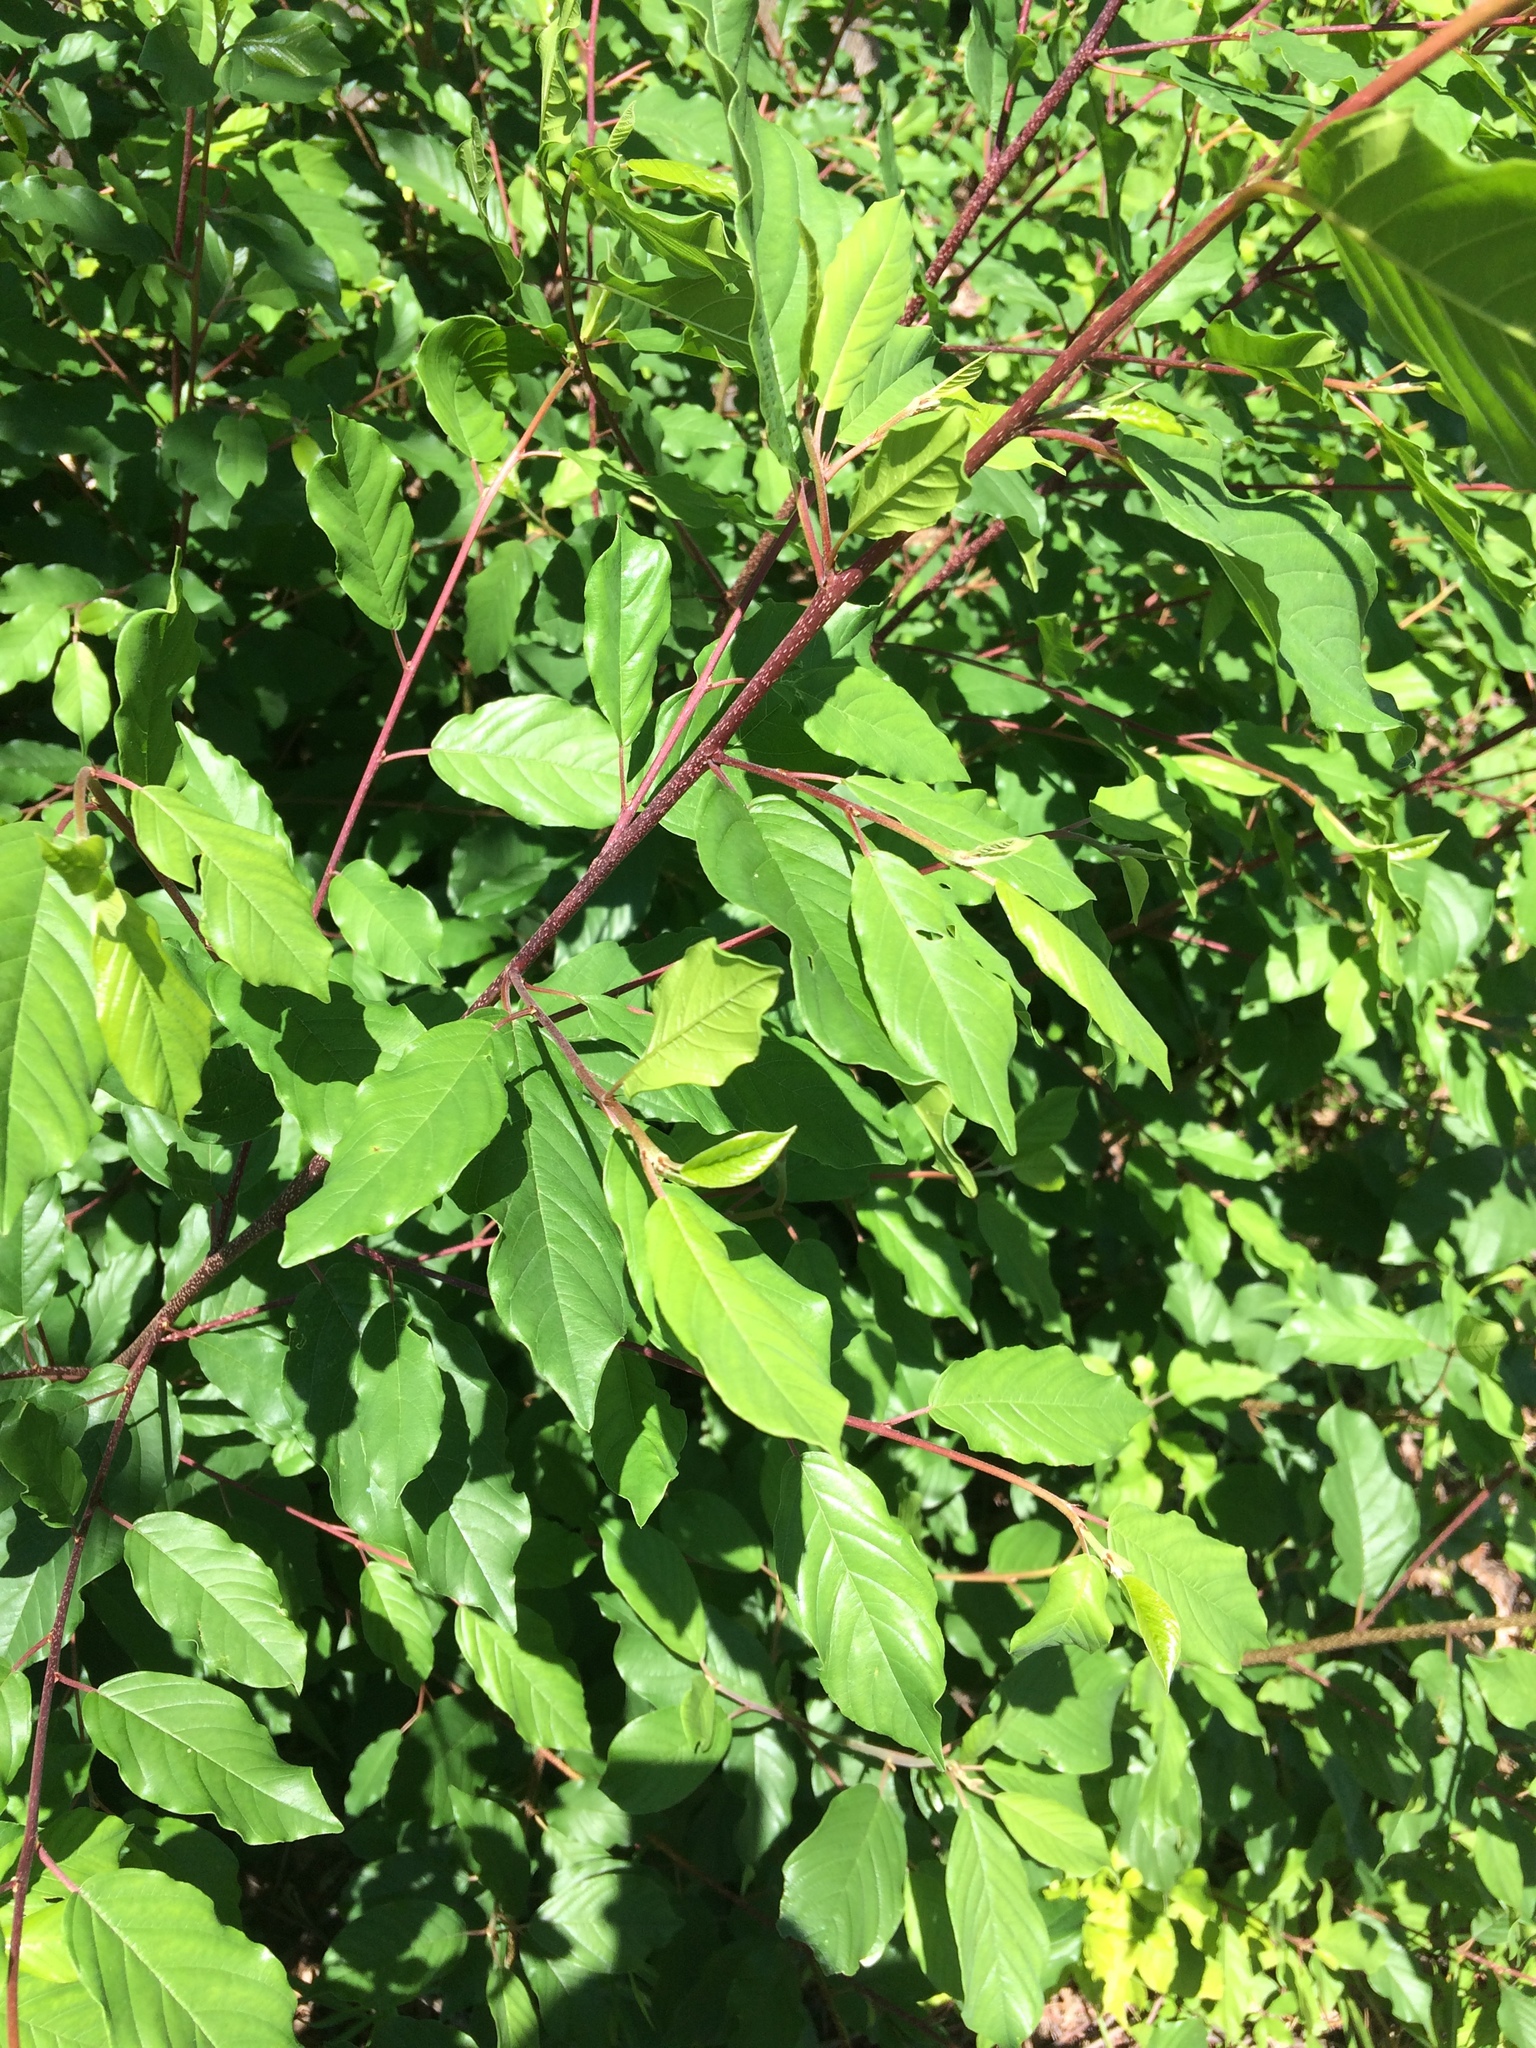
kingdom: Plantae
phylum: Tracheophyta
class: Magnoliopsida
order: Rosales
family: Rhamnaceae
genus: Frangula
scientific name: Frangula alnus
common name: Alder buckthorn
